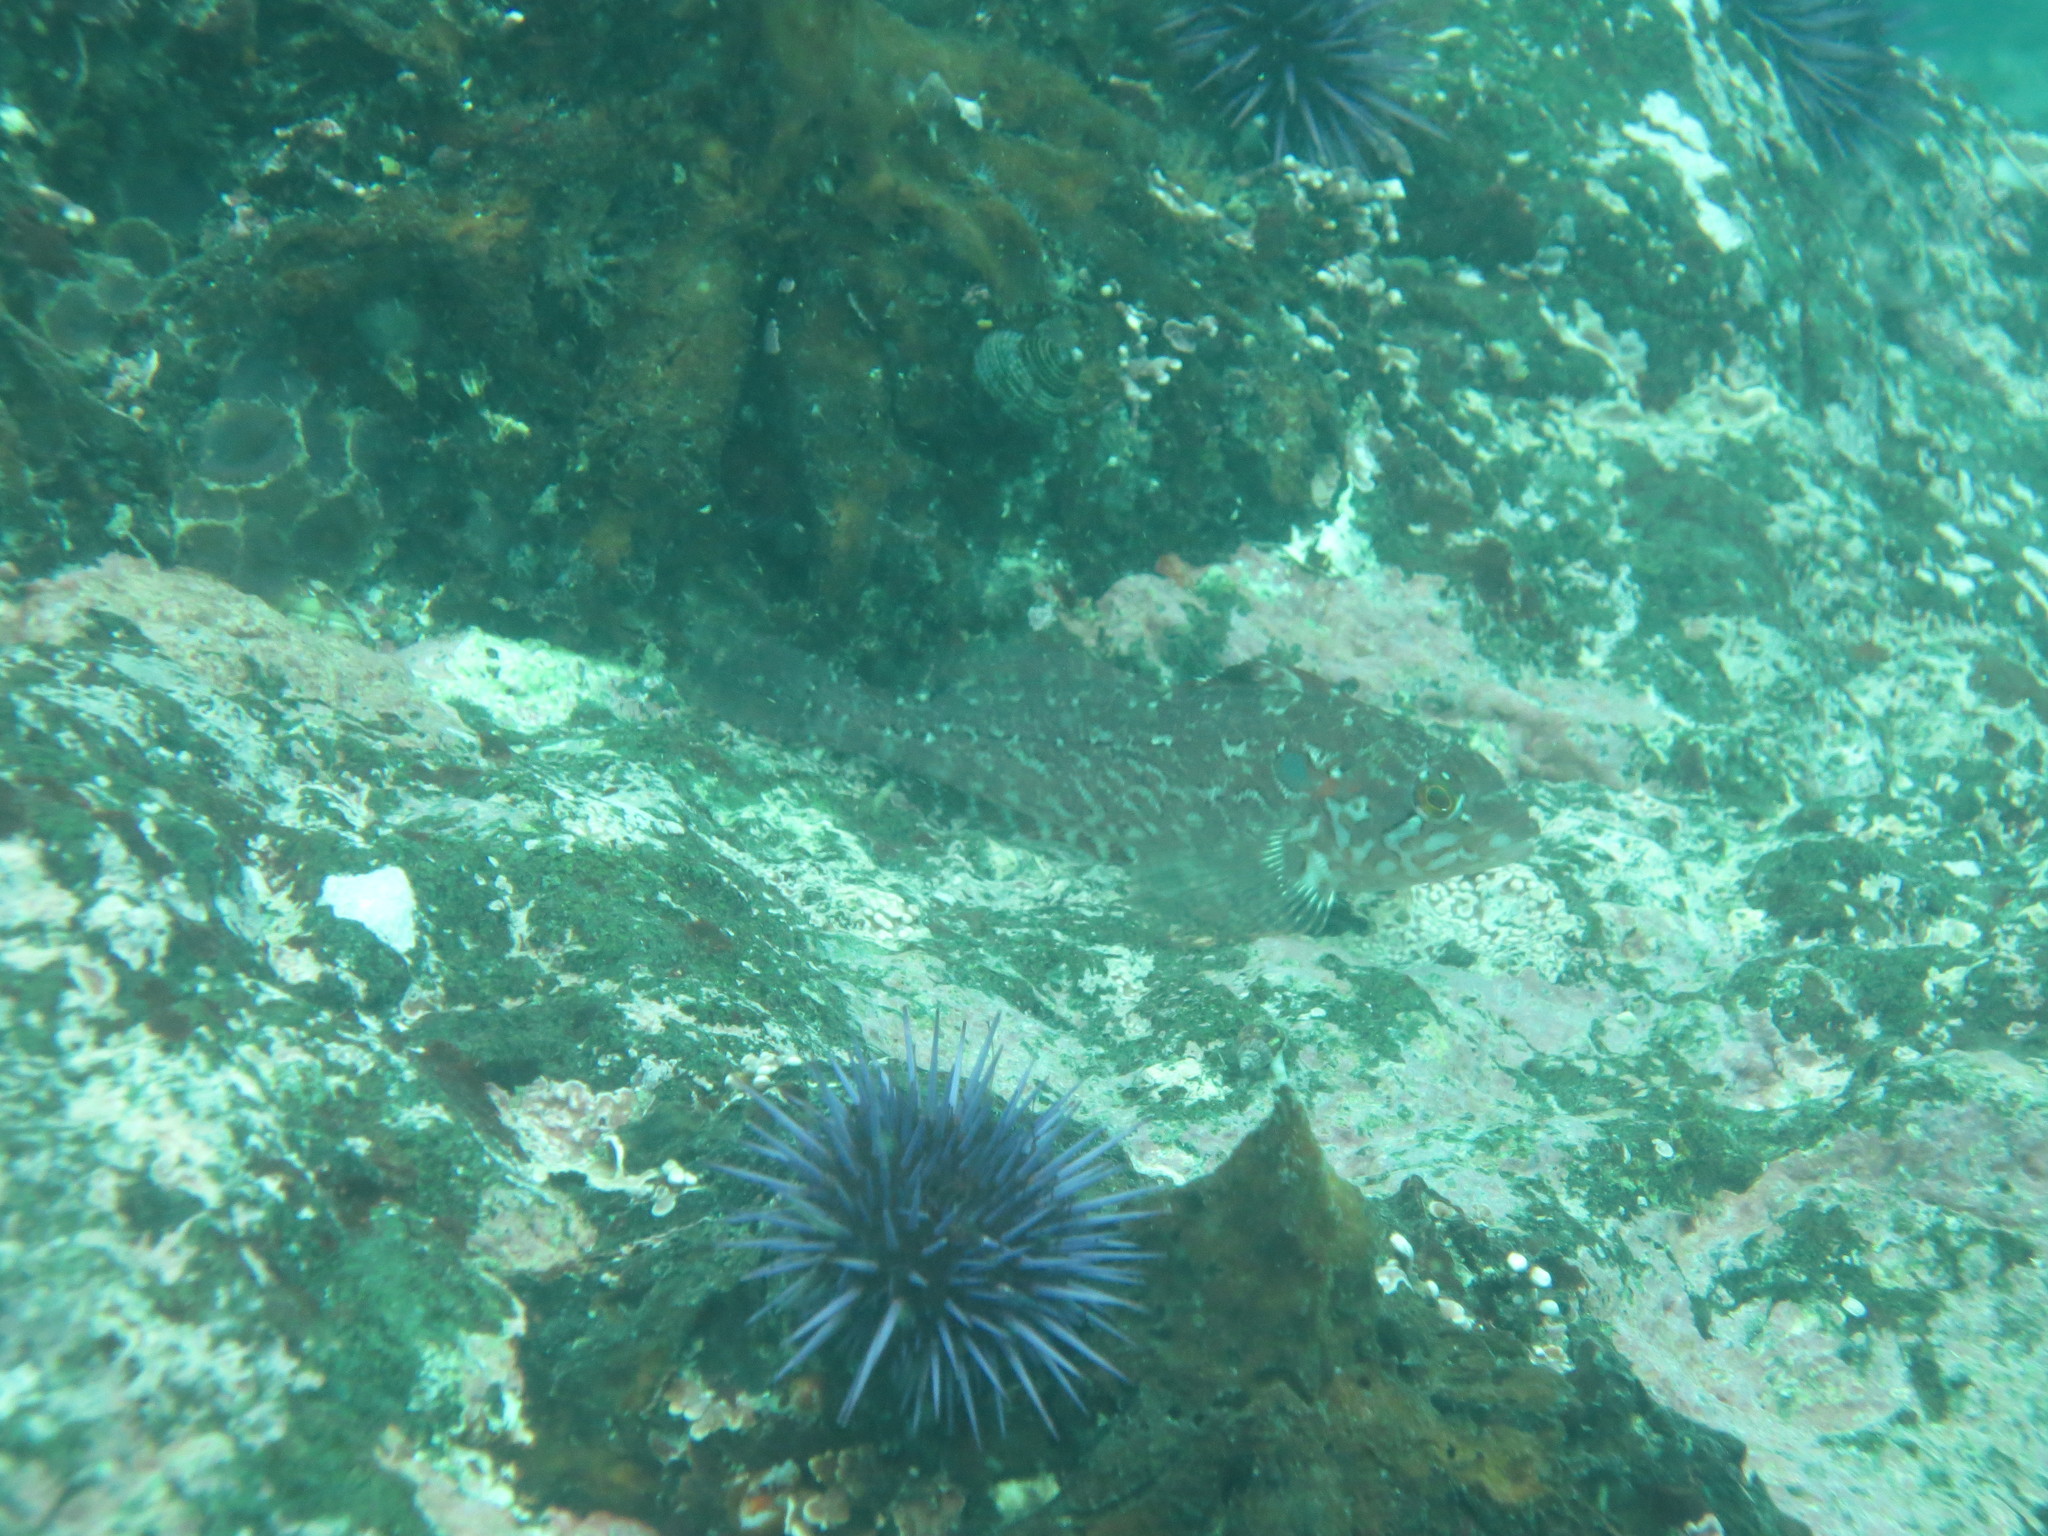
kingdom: Animalia
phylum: Chordata
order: Scorpaeniformes
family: Hexagrammidae
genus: Hexagrammos
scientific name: Hexagrammos decagrammus
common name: Kelp greenling
